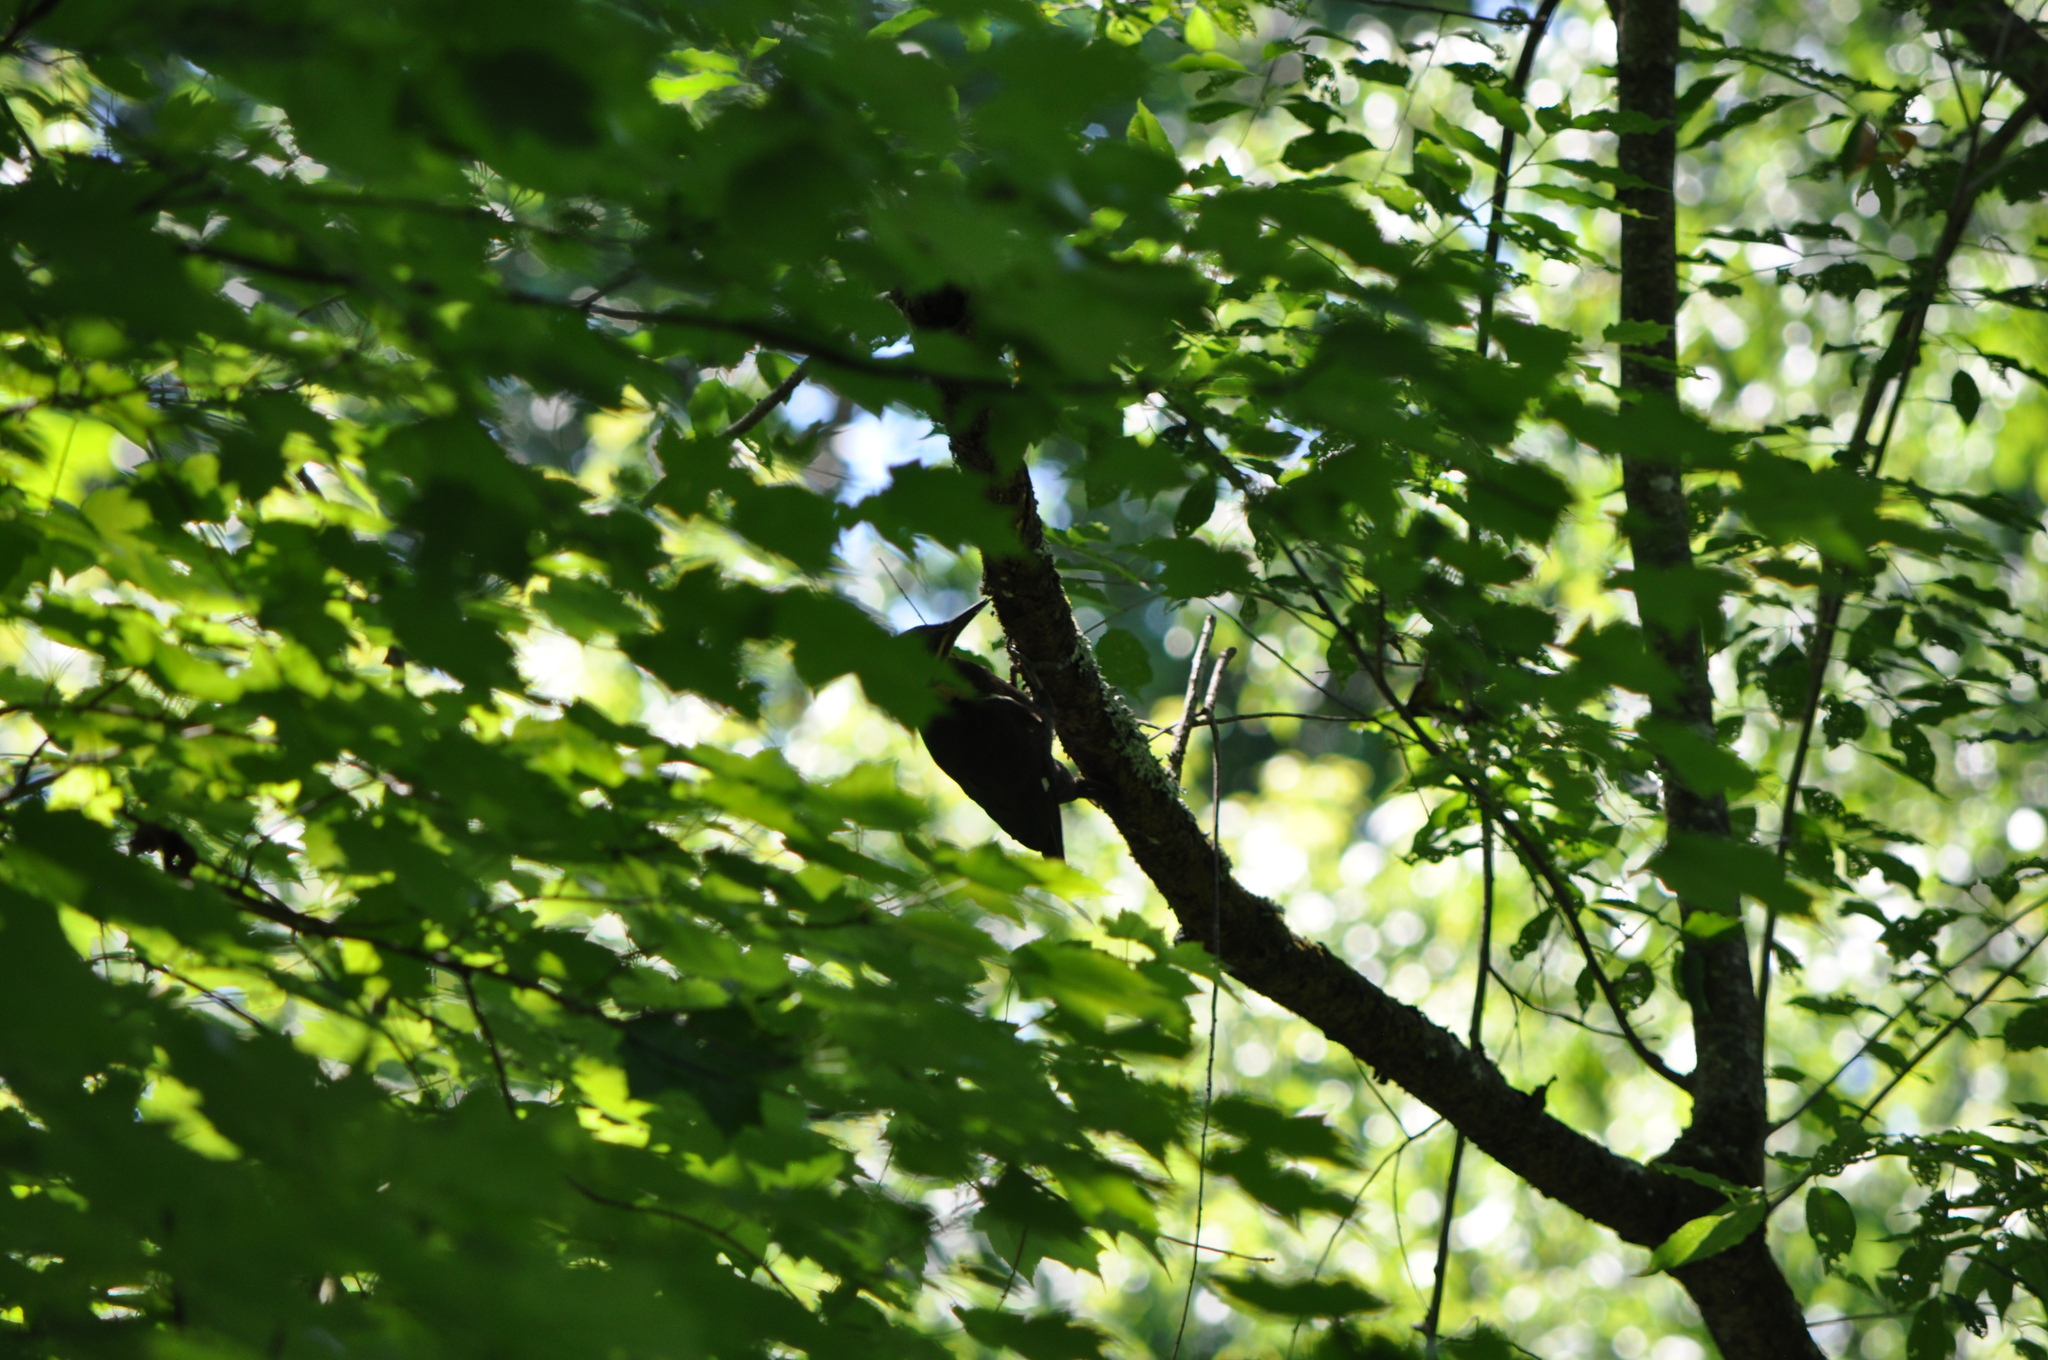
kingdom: Animalia
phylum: Chordata
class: Aves
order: Piciformes
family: Picidae
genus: Dryocopus
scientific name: Dryocopus pileatus
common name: Pileated woodpecker
